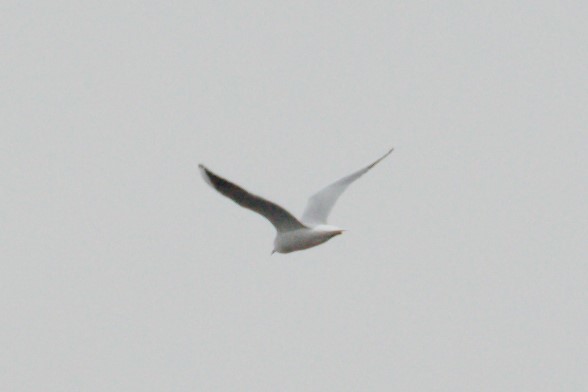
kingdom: Animalia
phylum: Chordata
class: Aves
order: Charadriiformes
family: Laridae
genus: Chroicocephalus
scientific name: Chroicocephalus ridibundus
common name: Black-headed gull
